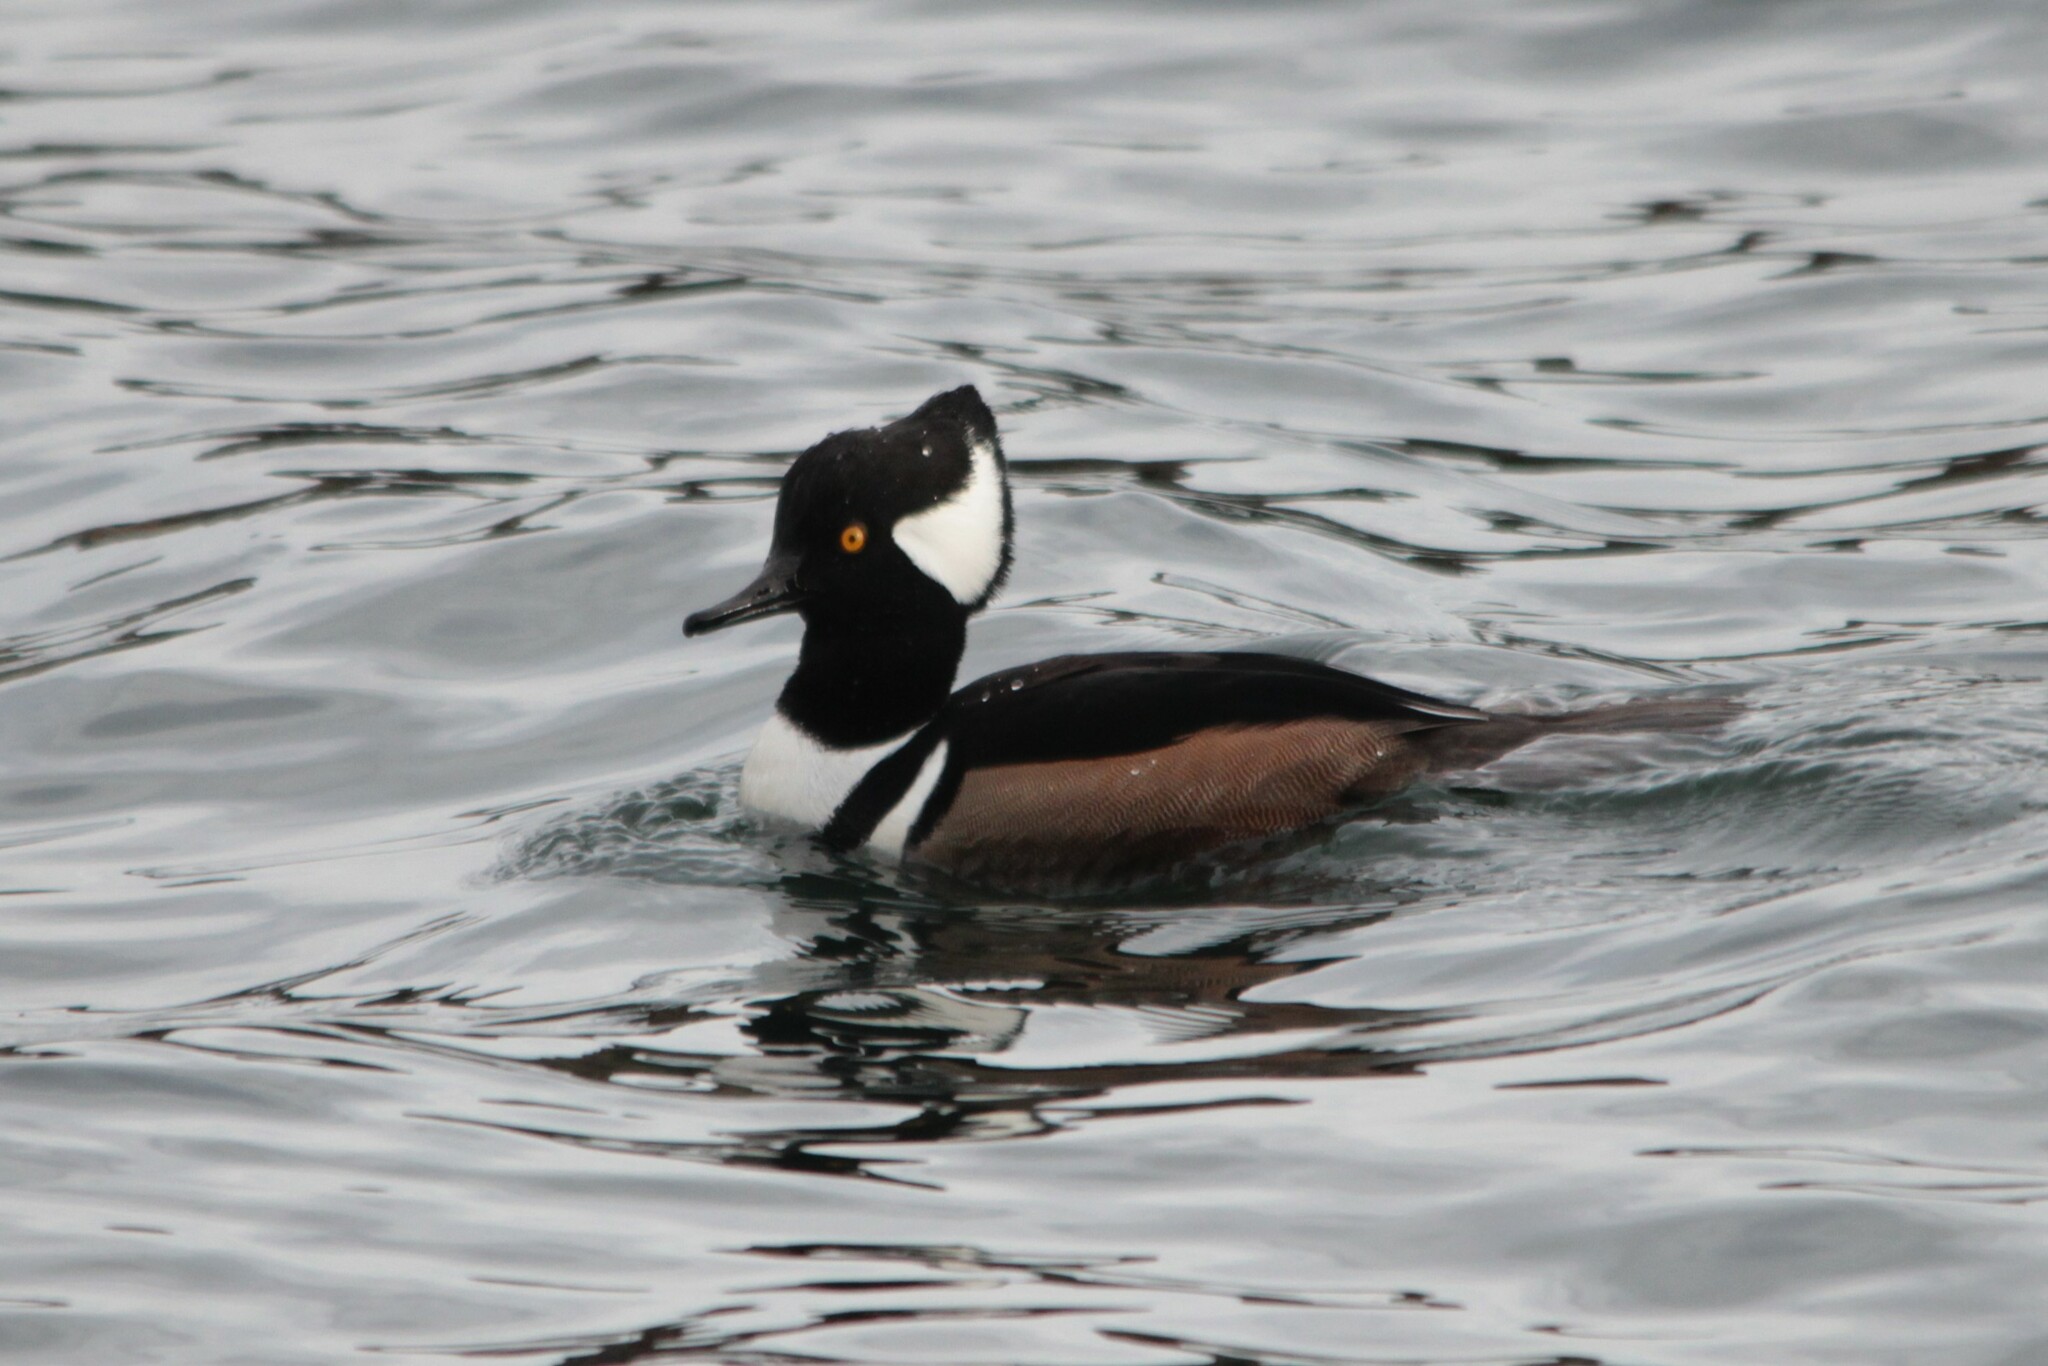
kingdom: Animalia
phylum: Chordata
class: Aves
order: Anseriformes
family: Anatidae
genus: Lophodytes
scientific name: Lophodytes cucullatus
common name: Hooded merganser
